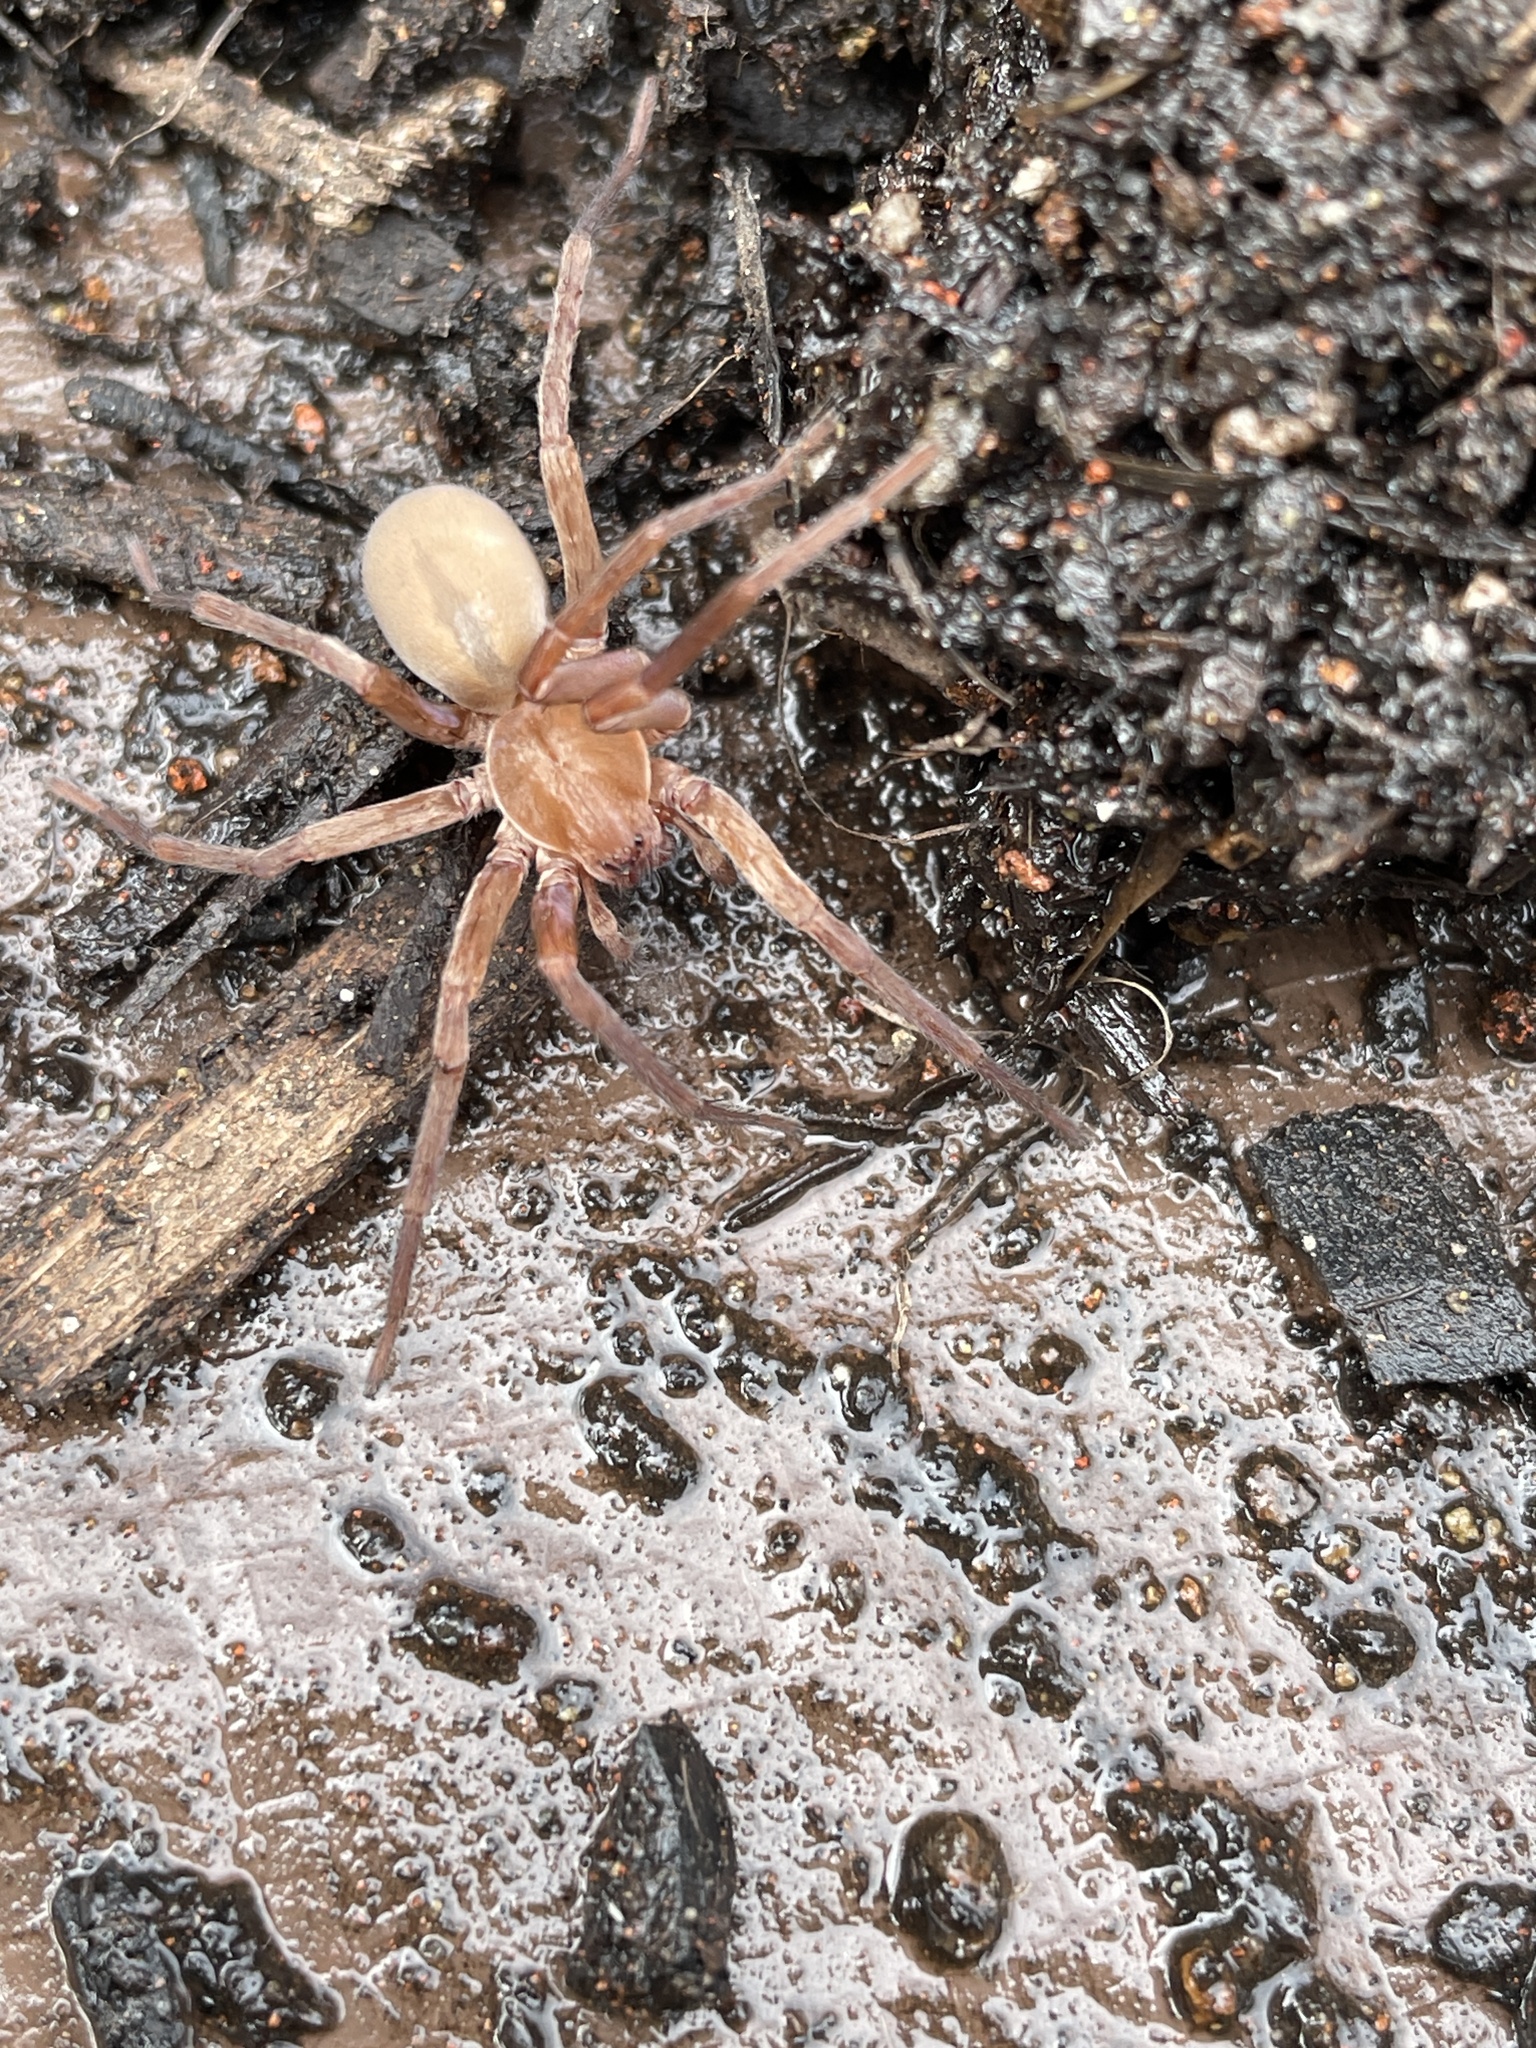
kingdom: Animalia
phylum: Arthropoda
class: Arachnida
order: Araneae
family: Zoropsidae
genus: Titiotus
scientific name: Titiotus
